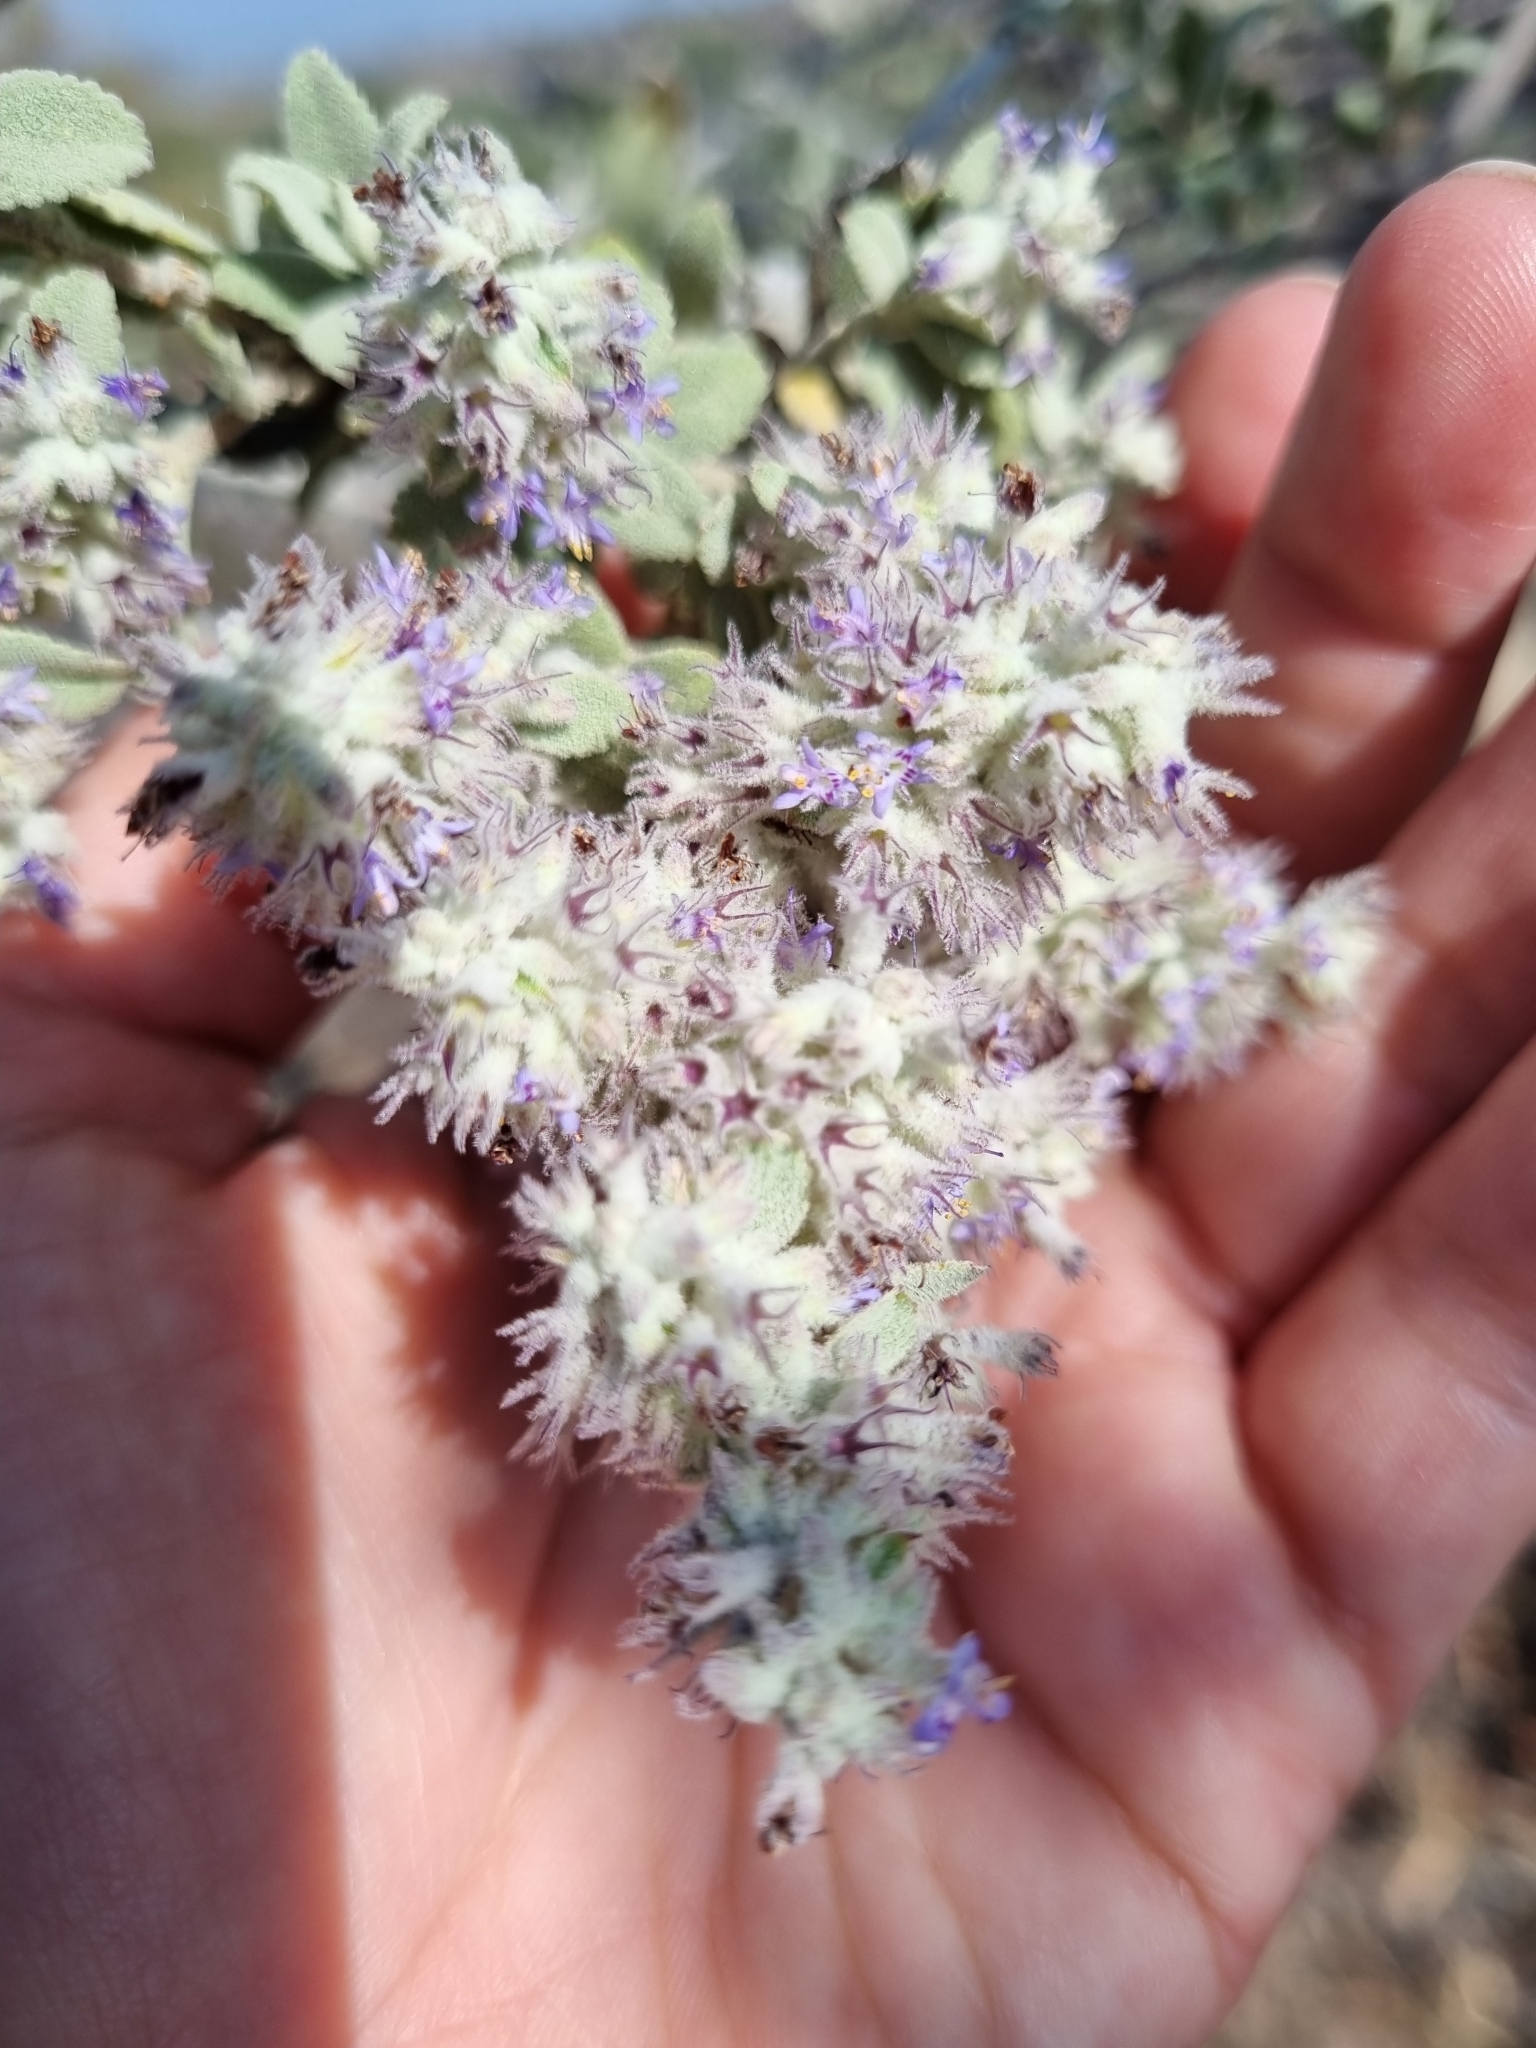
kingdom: Plantae
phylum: Tracheophyta
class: Magnoliopsida
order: Lamiales
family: Lamiaceae
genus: Condea
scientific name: Condea albida
